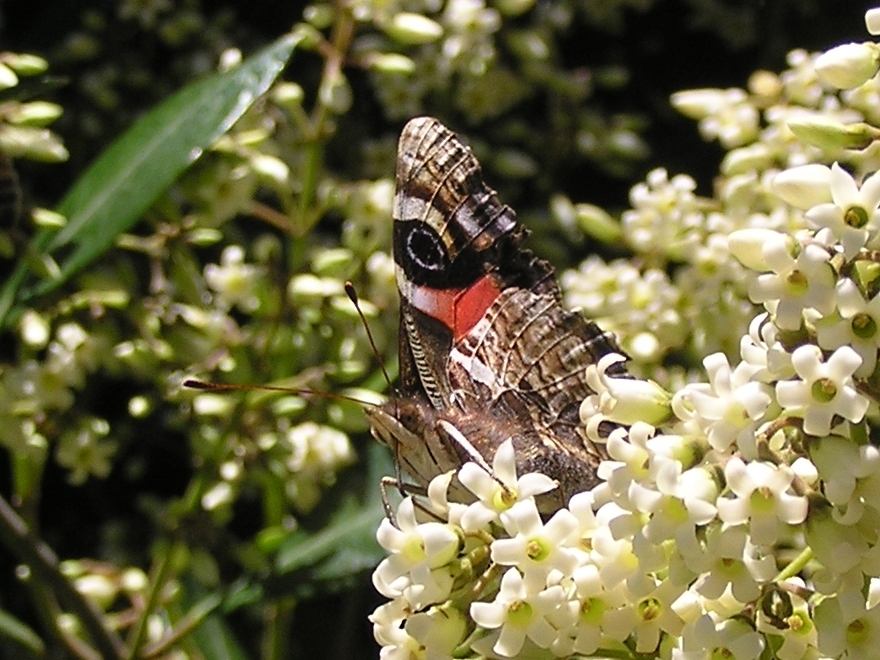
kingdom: Animalia
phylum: Arthropoda
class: Insecta
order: Lepidoptera
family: Nymphalidae
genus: Vanessa
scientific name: Vanessa gonerilla
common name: New zealand red admiral
